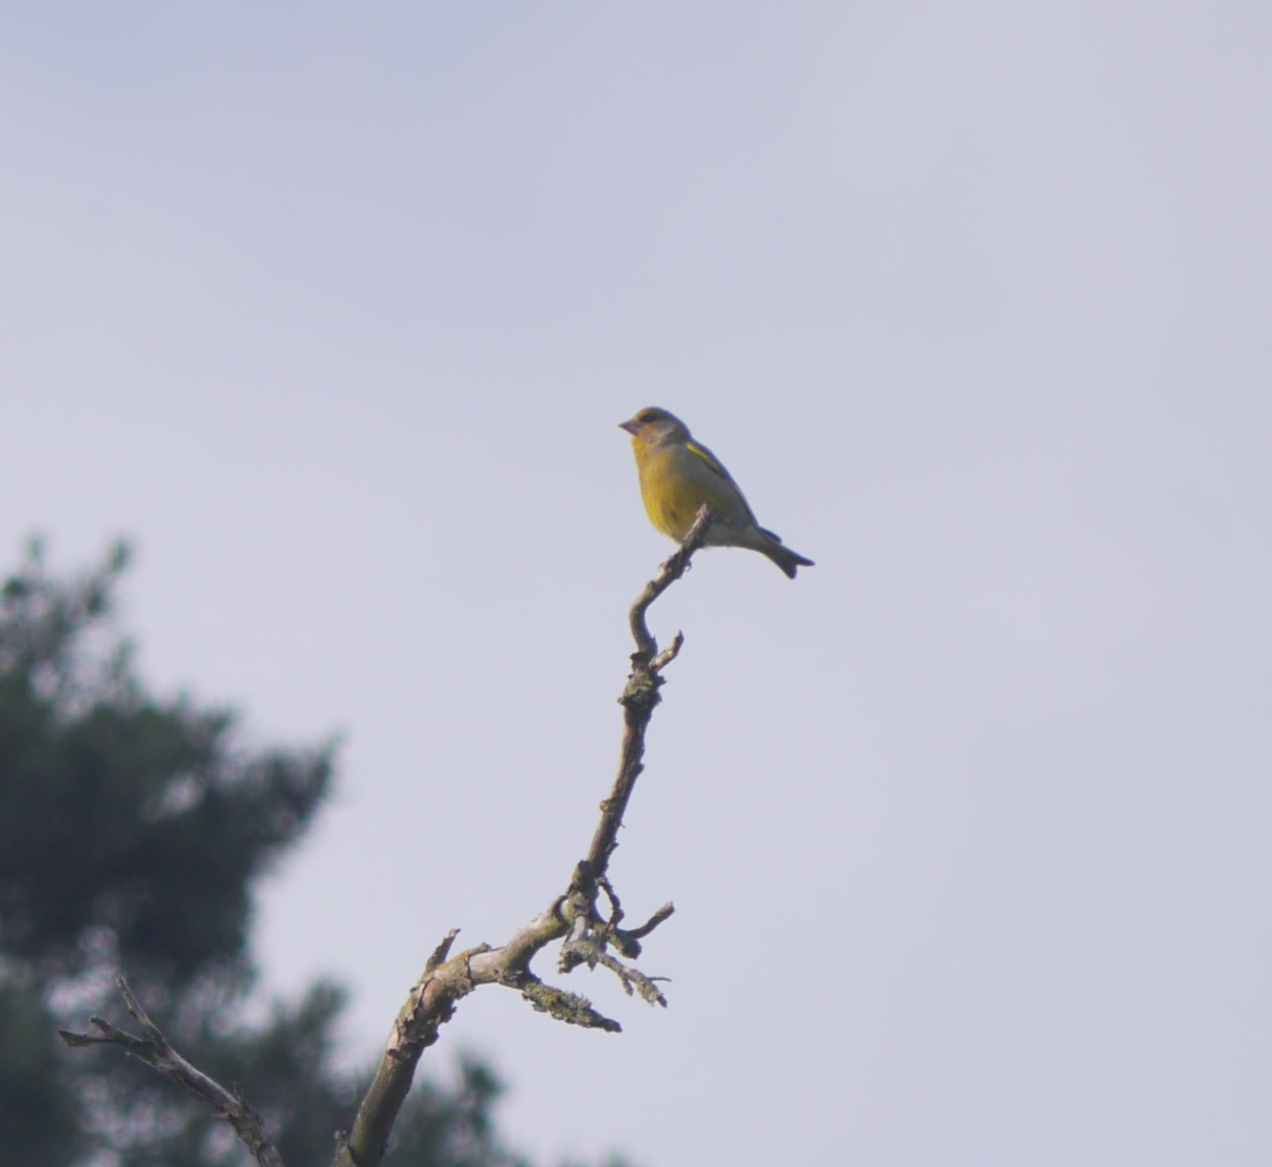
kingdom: Plantae
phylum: Tracheophyta
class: Liliopsida
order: Poales
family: Poaceae
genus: Chloris
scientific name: Chloris chloris
